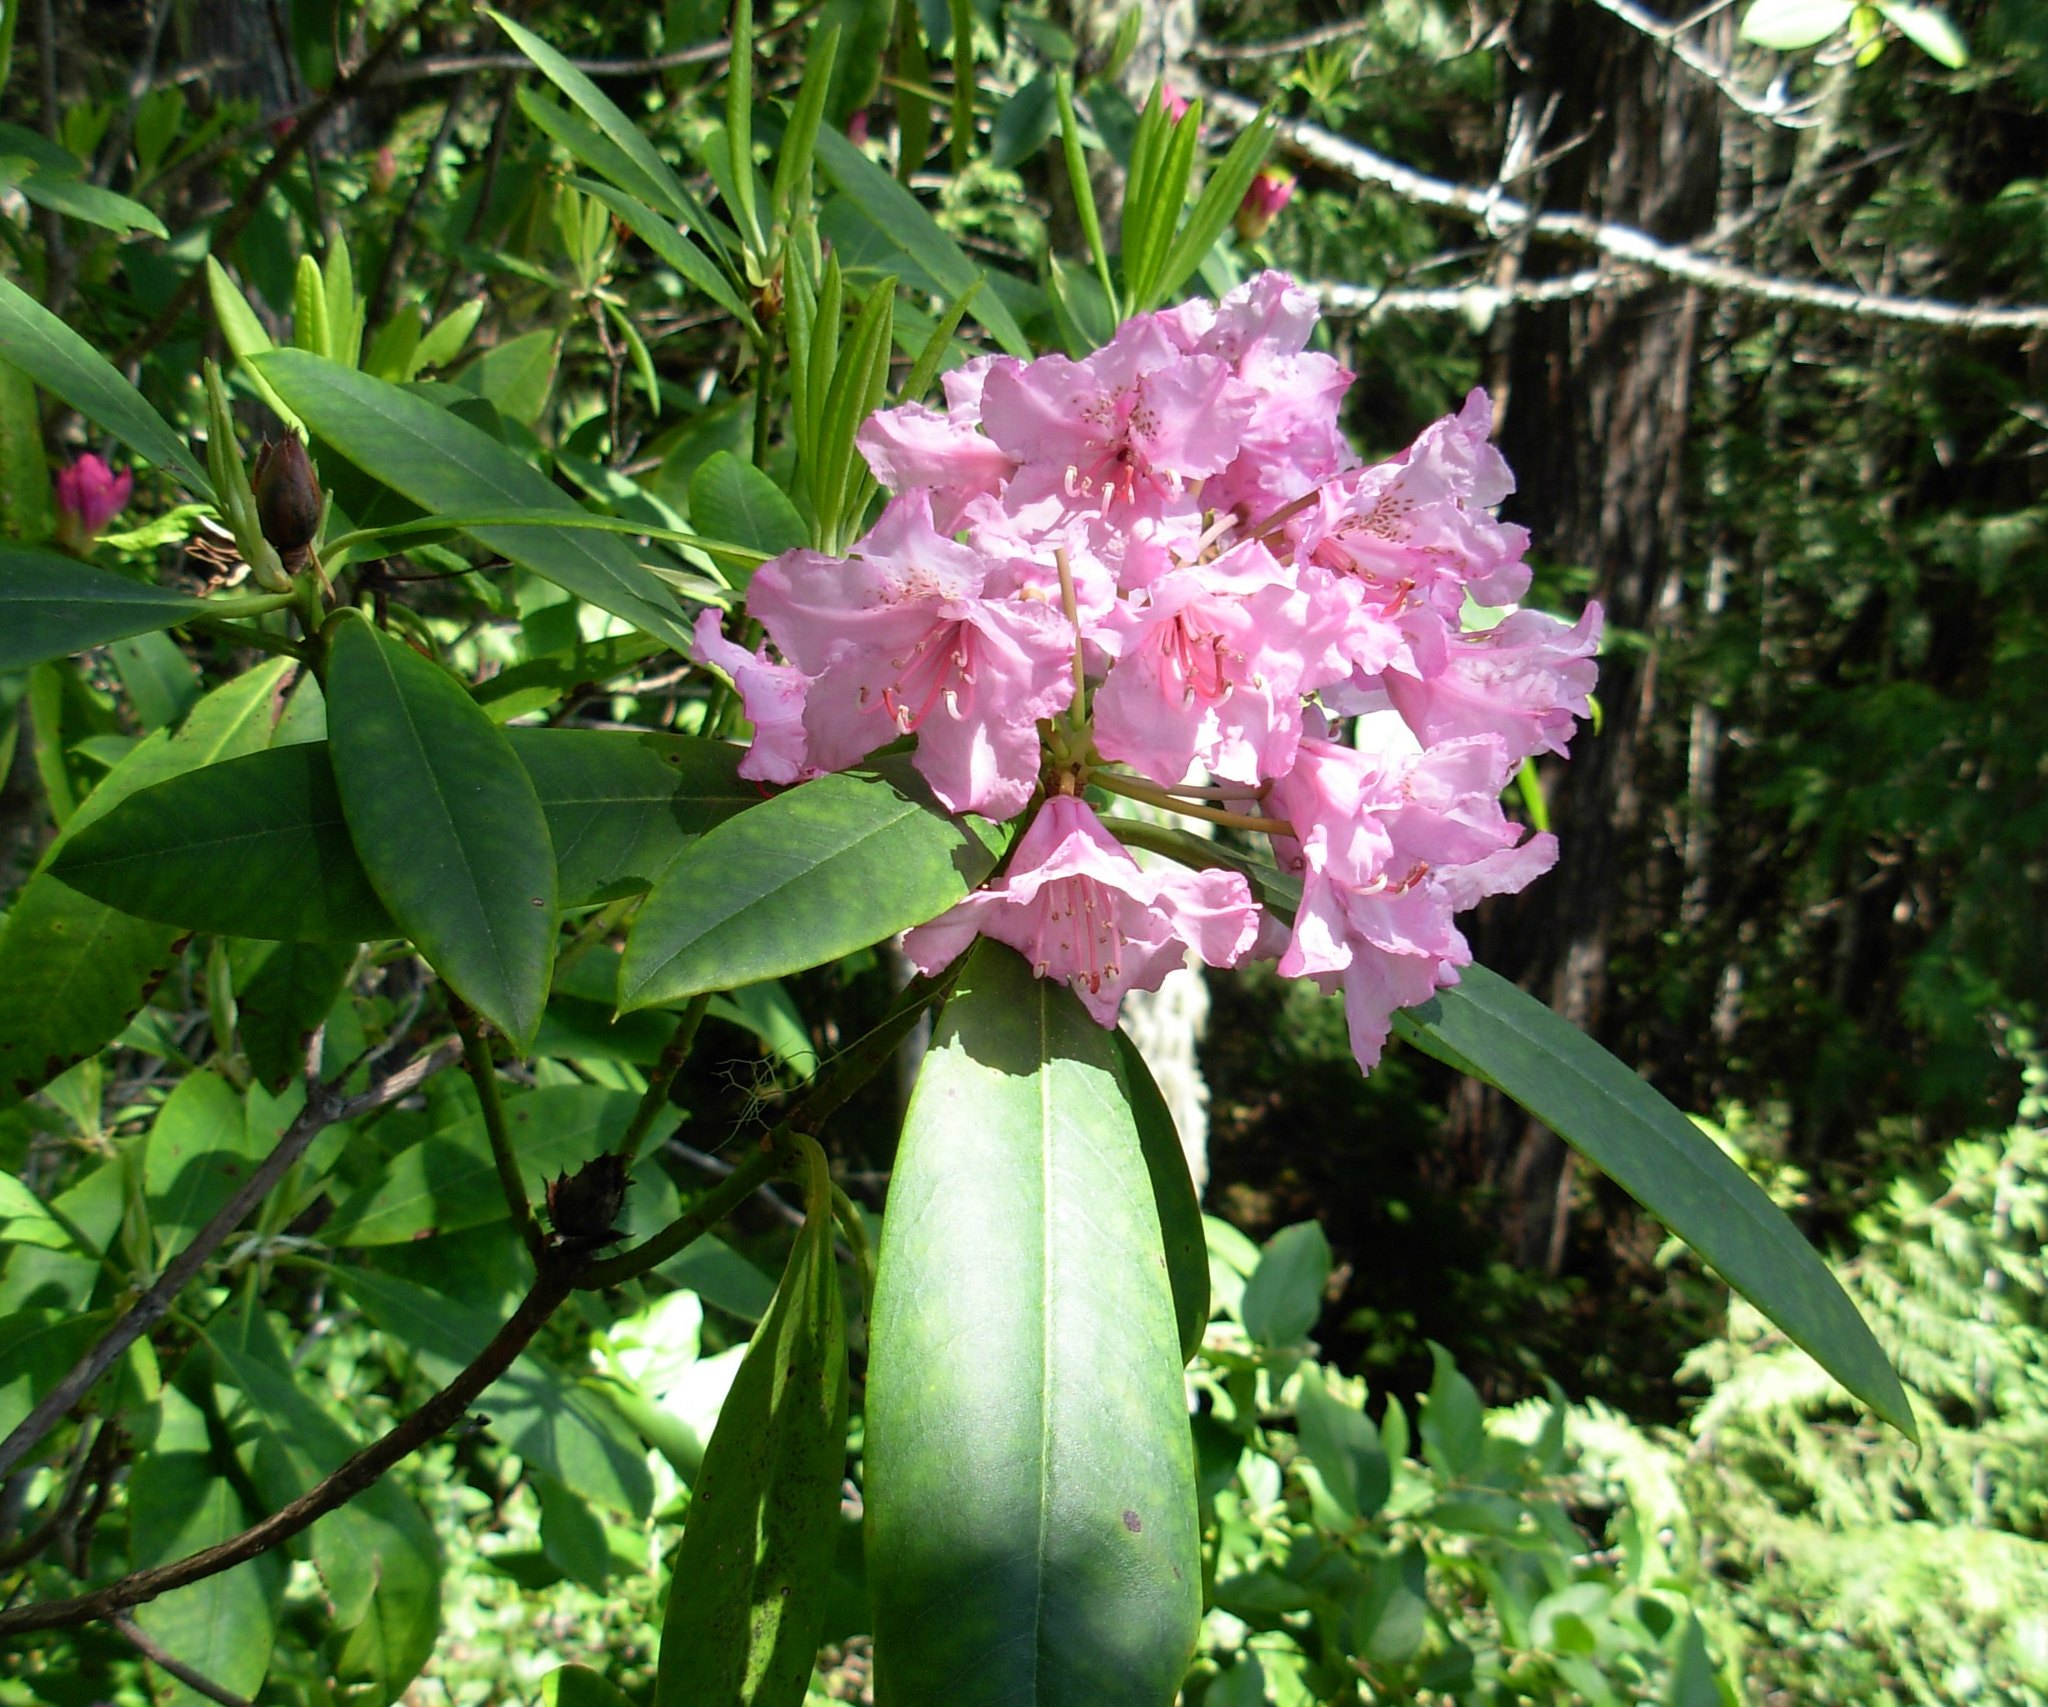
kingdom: Plantae
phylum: Tracheophyta
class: Magnoliopsida
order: Ericales
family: Ericaceae
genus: Rhododendron
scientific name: Rhododendron macrophyllum
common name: California rose bay
